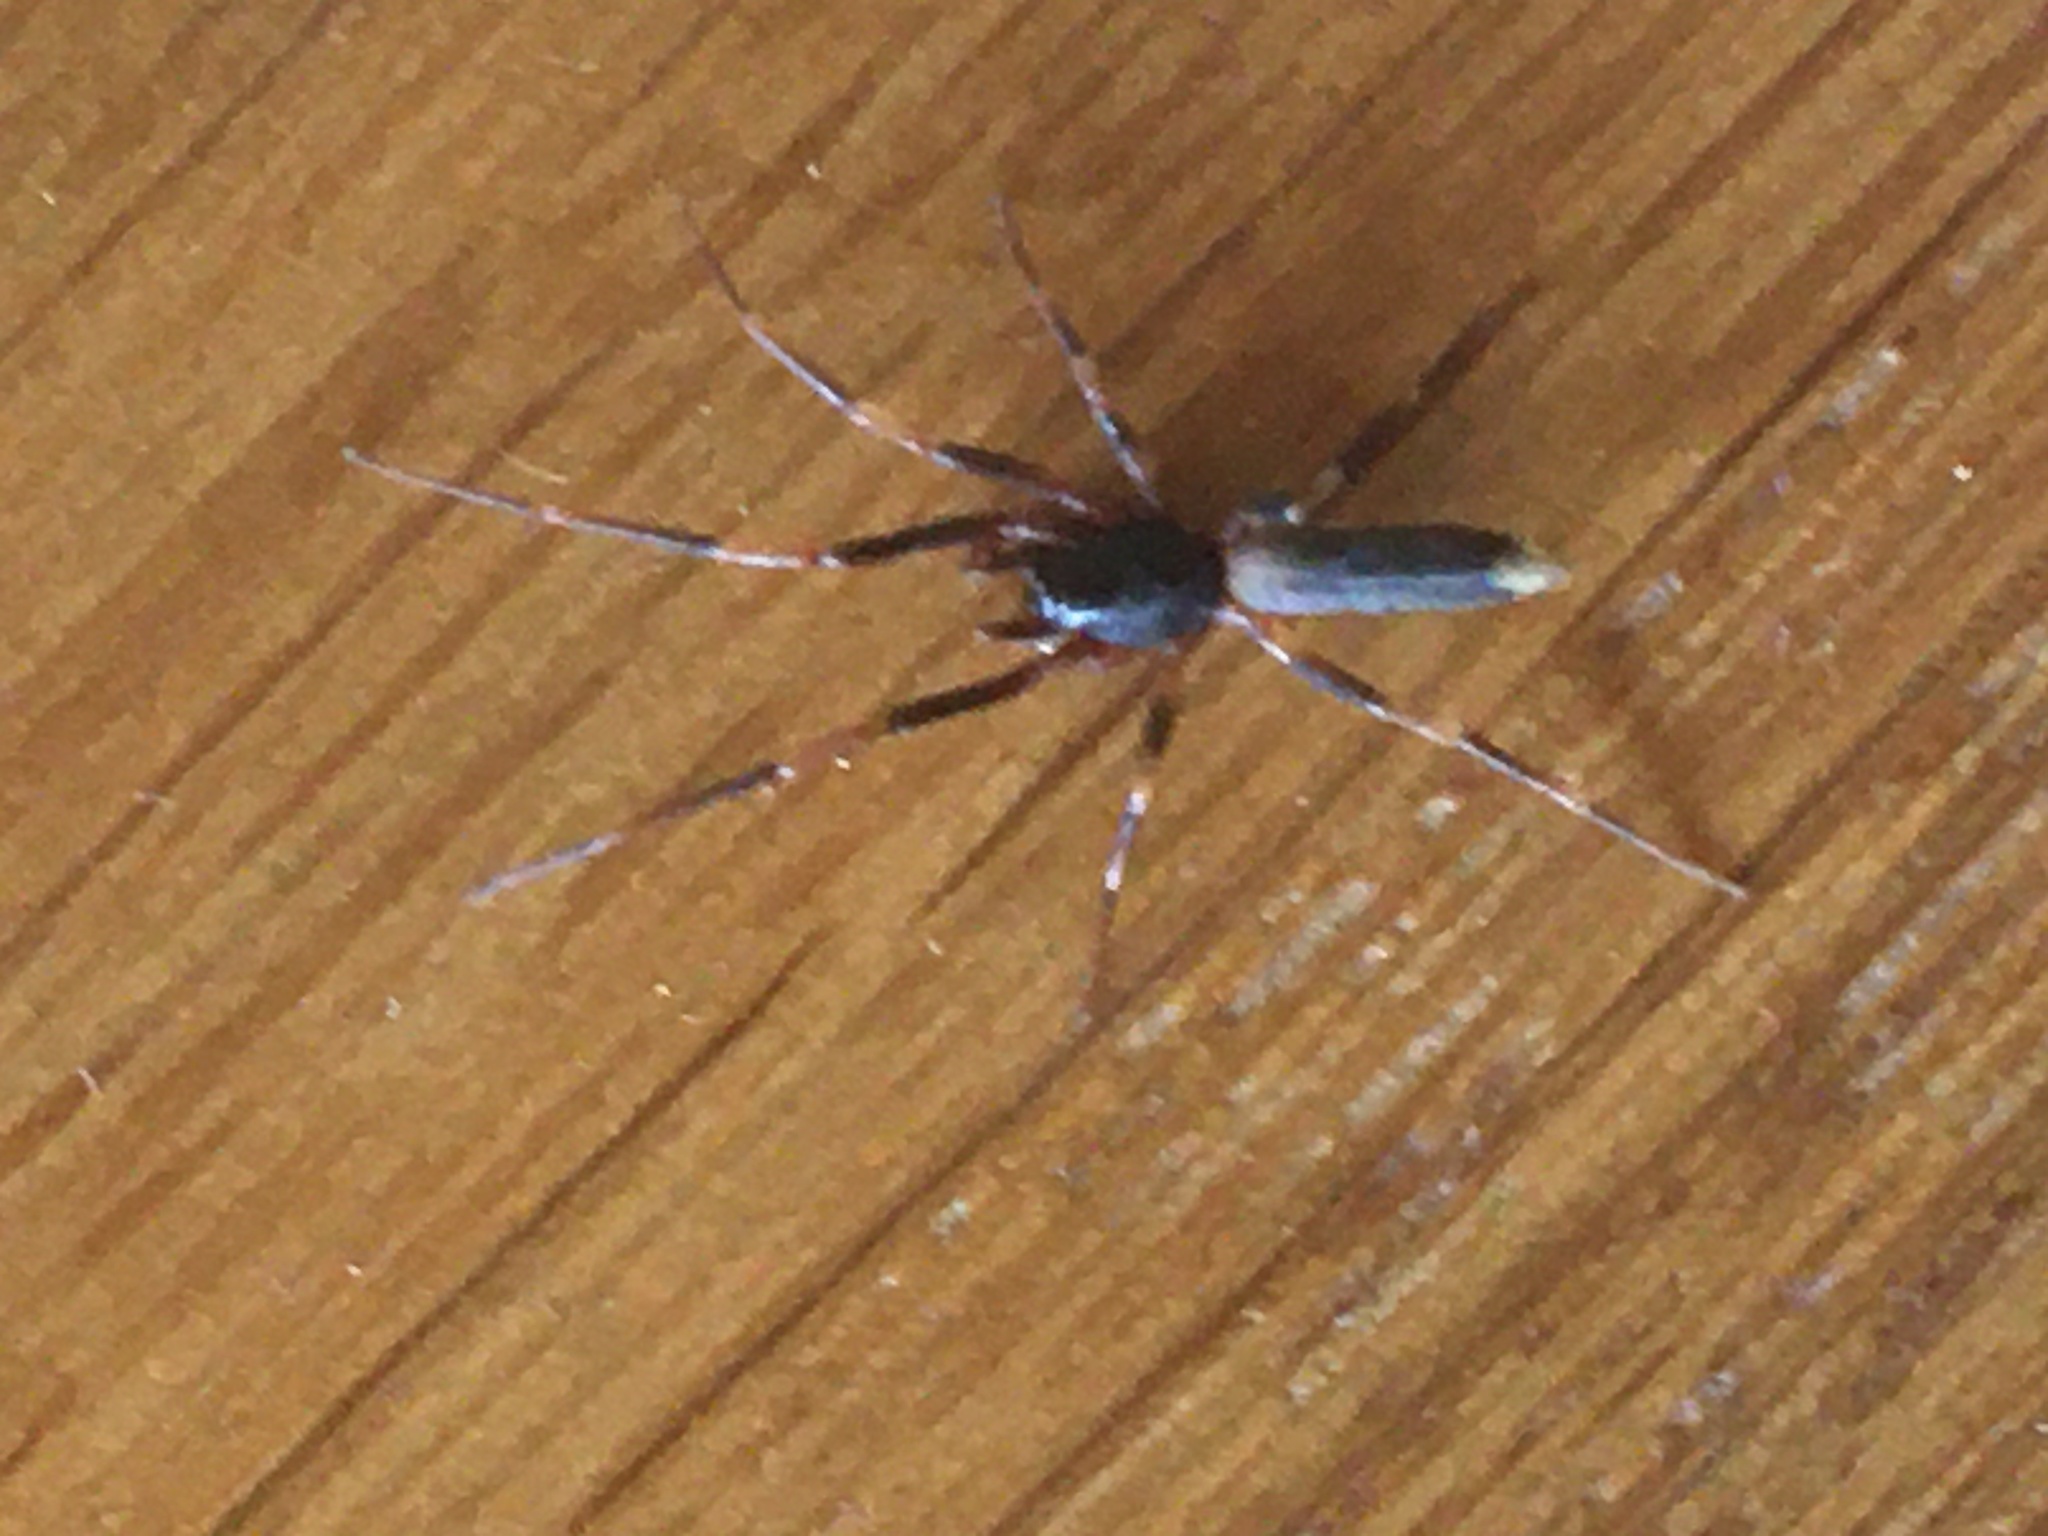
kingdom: Animalia
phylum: Arthropoda
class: Arachnida
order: Araneae
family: Dysderidae
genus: Harpactea
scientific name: Harpactea hombergi
